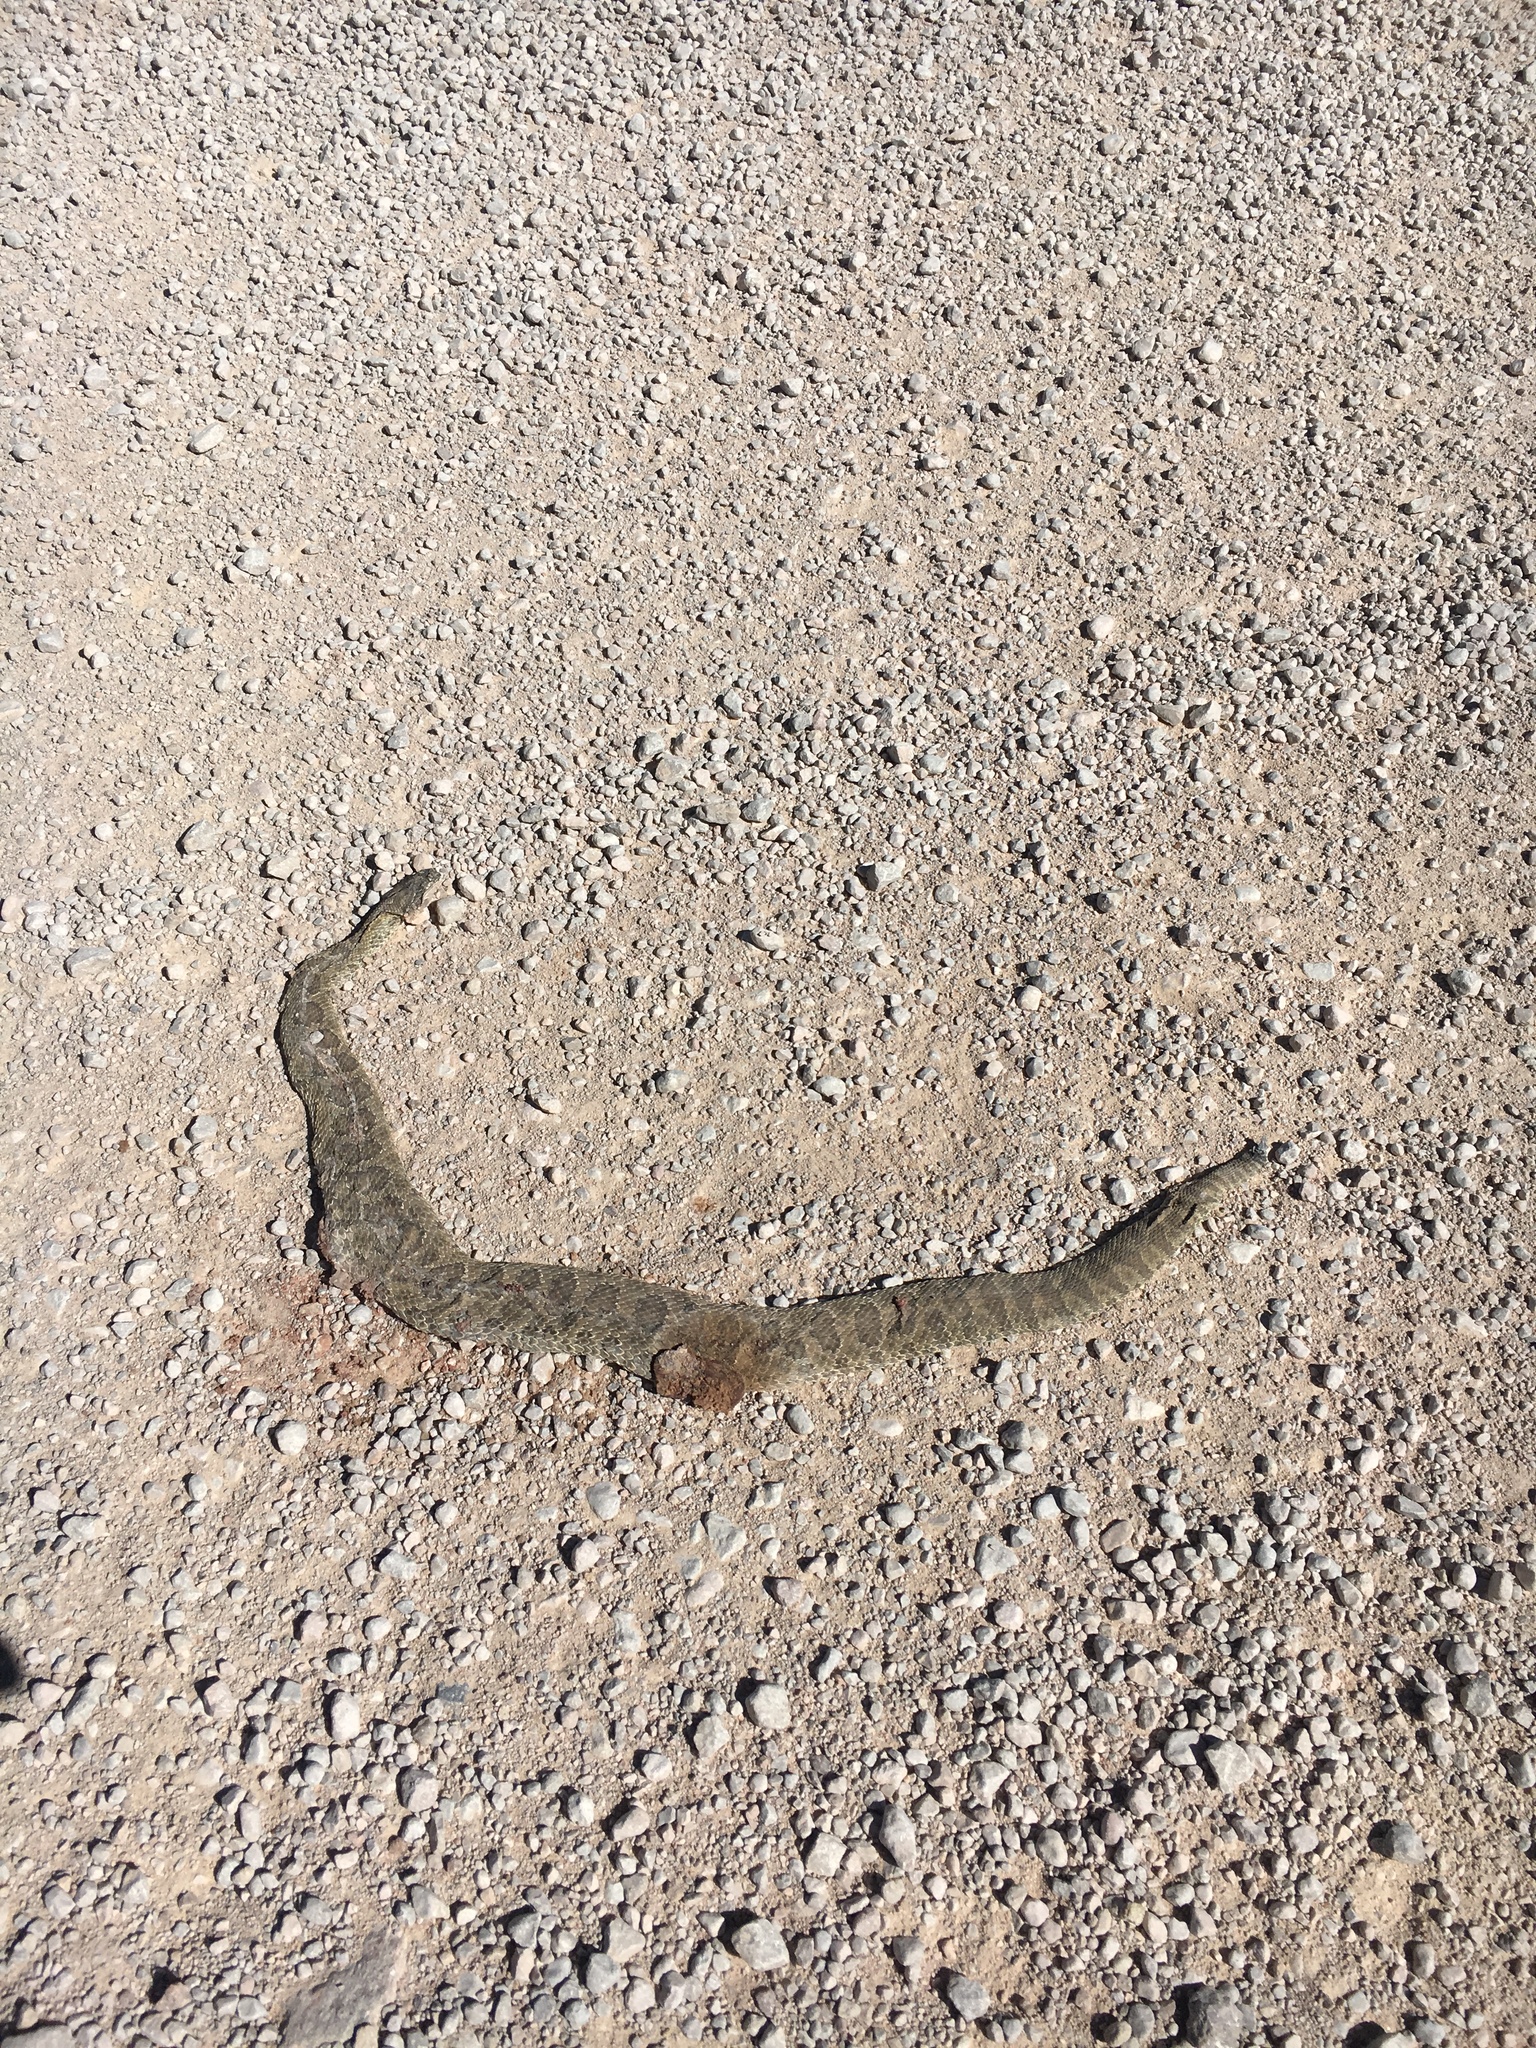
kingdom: Animalia
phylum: Chordata
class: Squamata
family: Viperidae
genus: Crotalus
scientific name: Crotalus viridis
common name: Prairie rattlesnake
